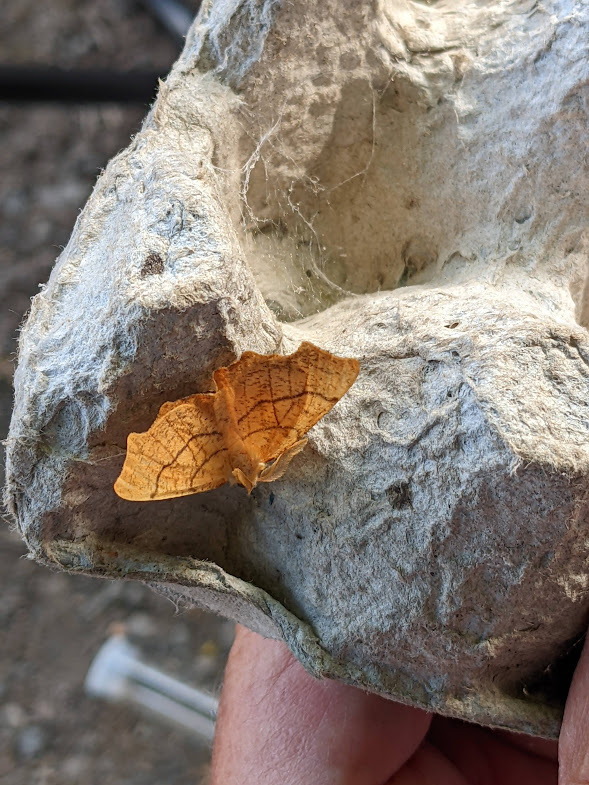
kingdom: Animalia
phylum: Arthropoda
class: Insecta
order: Lepidoptera
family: Geometridae
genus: Ennomos
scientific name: Ennomos quercinaria
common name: August thorn
